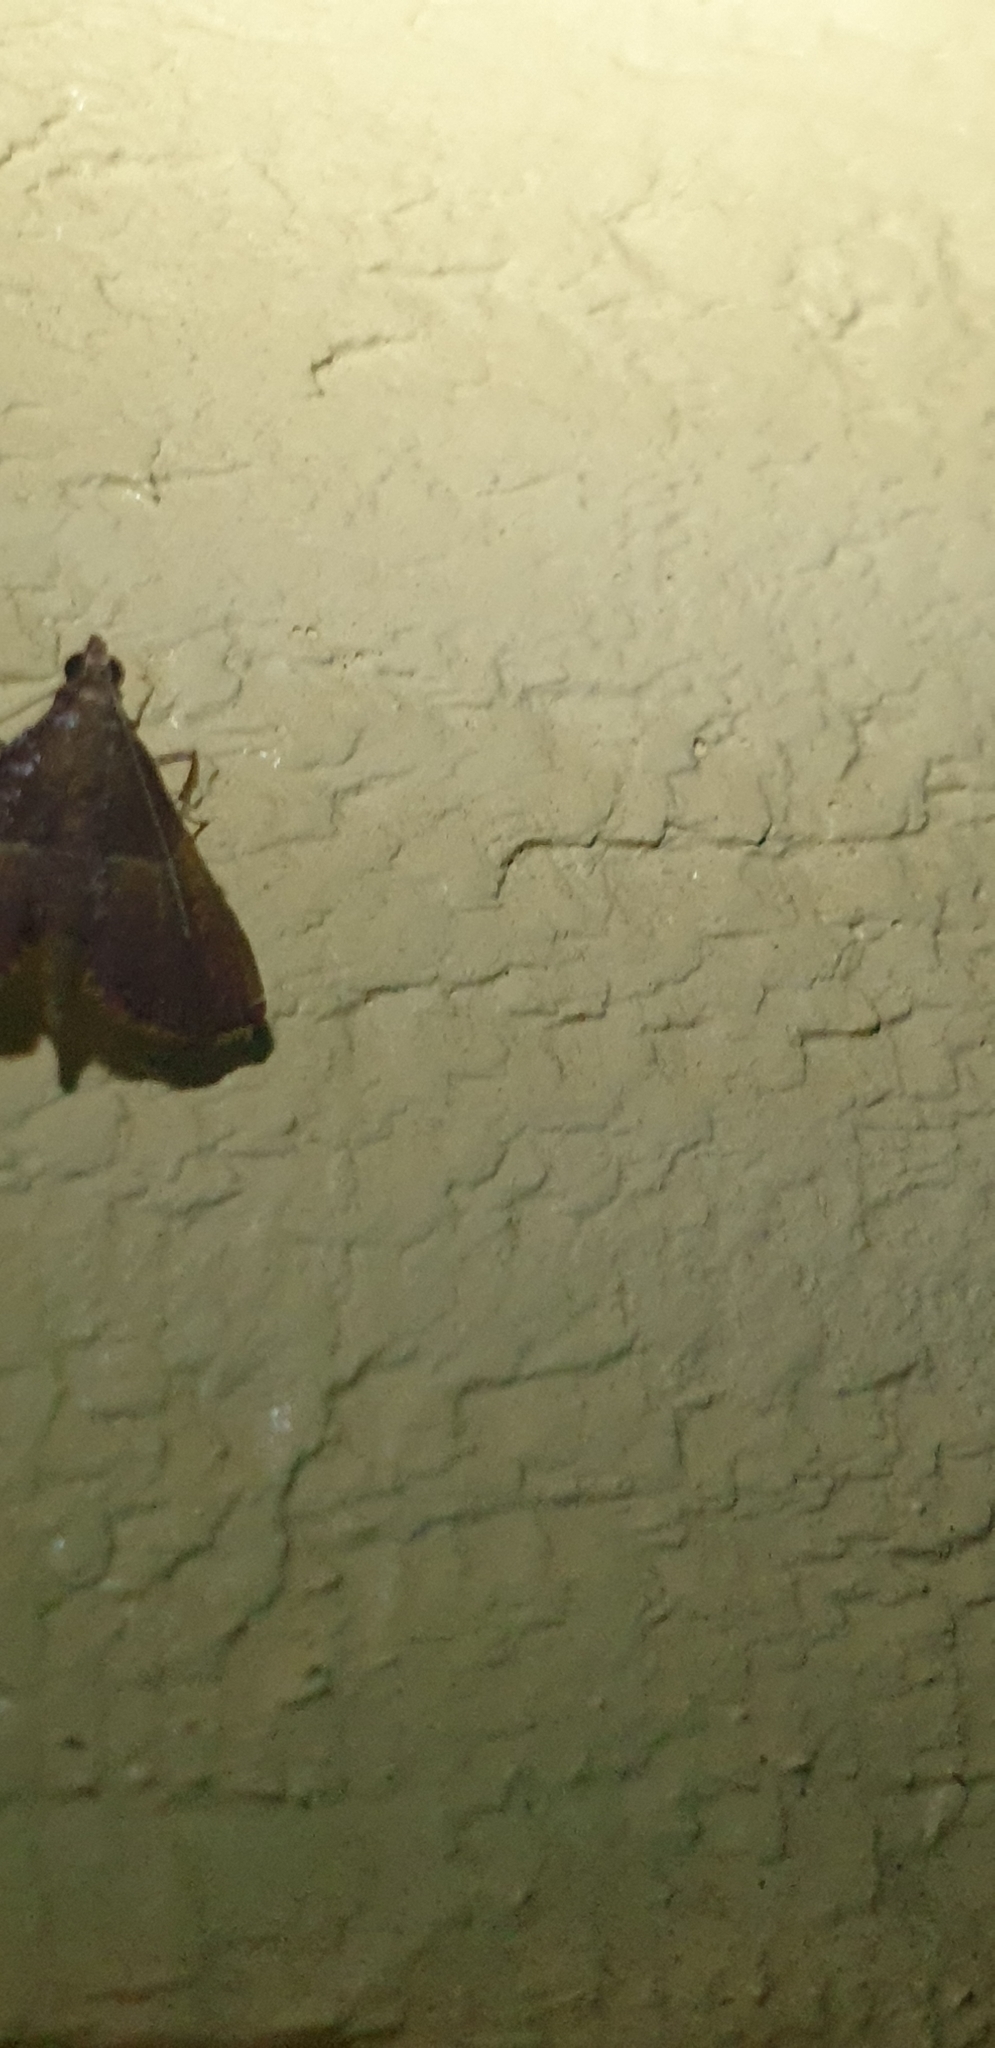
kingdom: Animalia
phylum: Arthropoda
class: Insecta
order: Lepidoptera
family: Pyralidae
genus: Endotricha
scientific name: Endotricha mesenterialis
